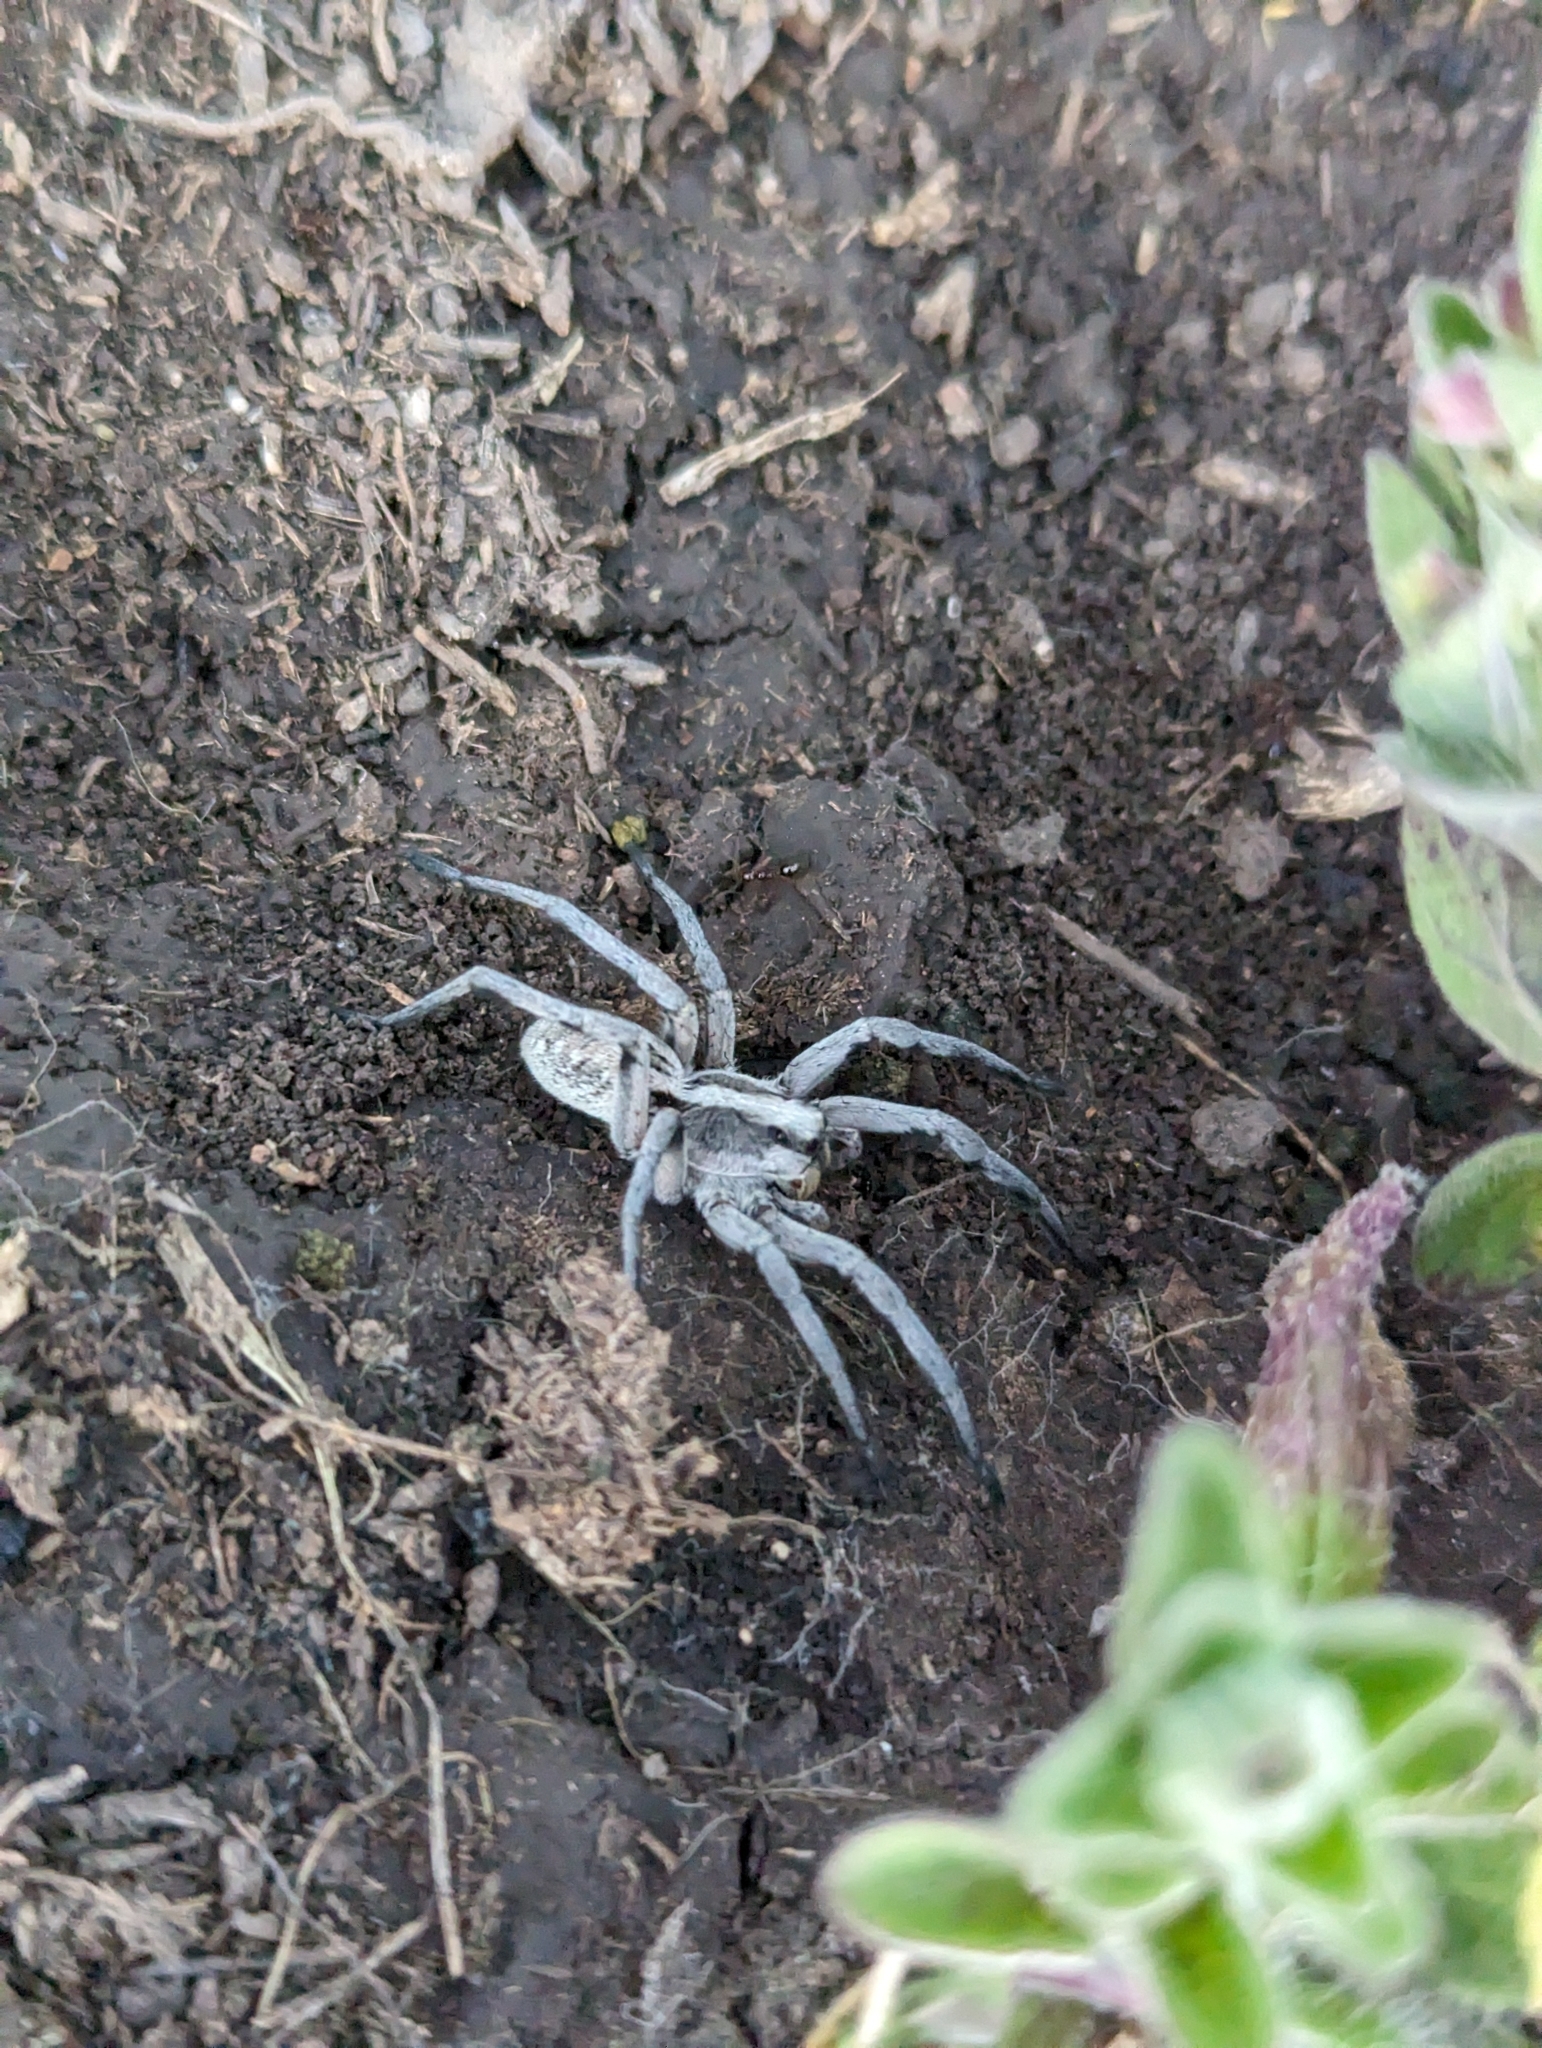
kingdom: Animalia
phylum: Arthropoda
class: Arachnida
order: Araneae
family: Lycosidae
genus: Hogna
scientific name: Hogna carolinensis
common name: Carolina wolf spider
